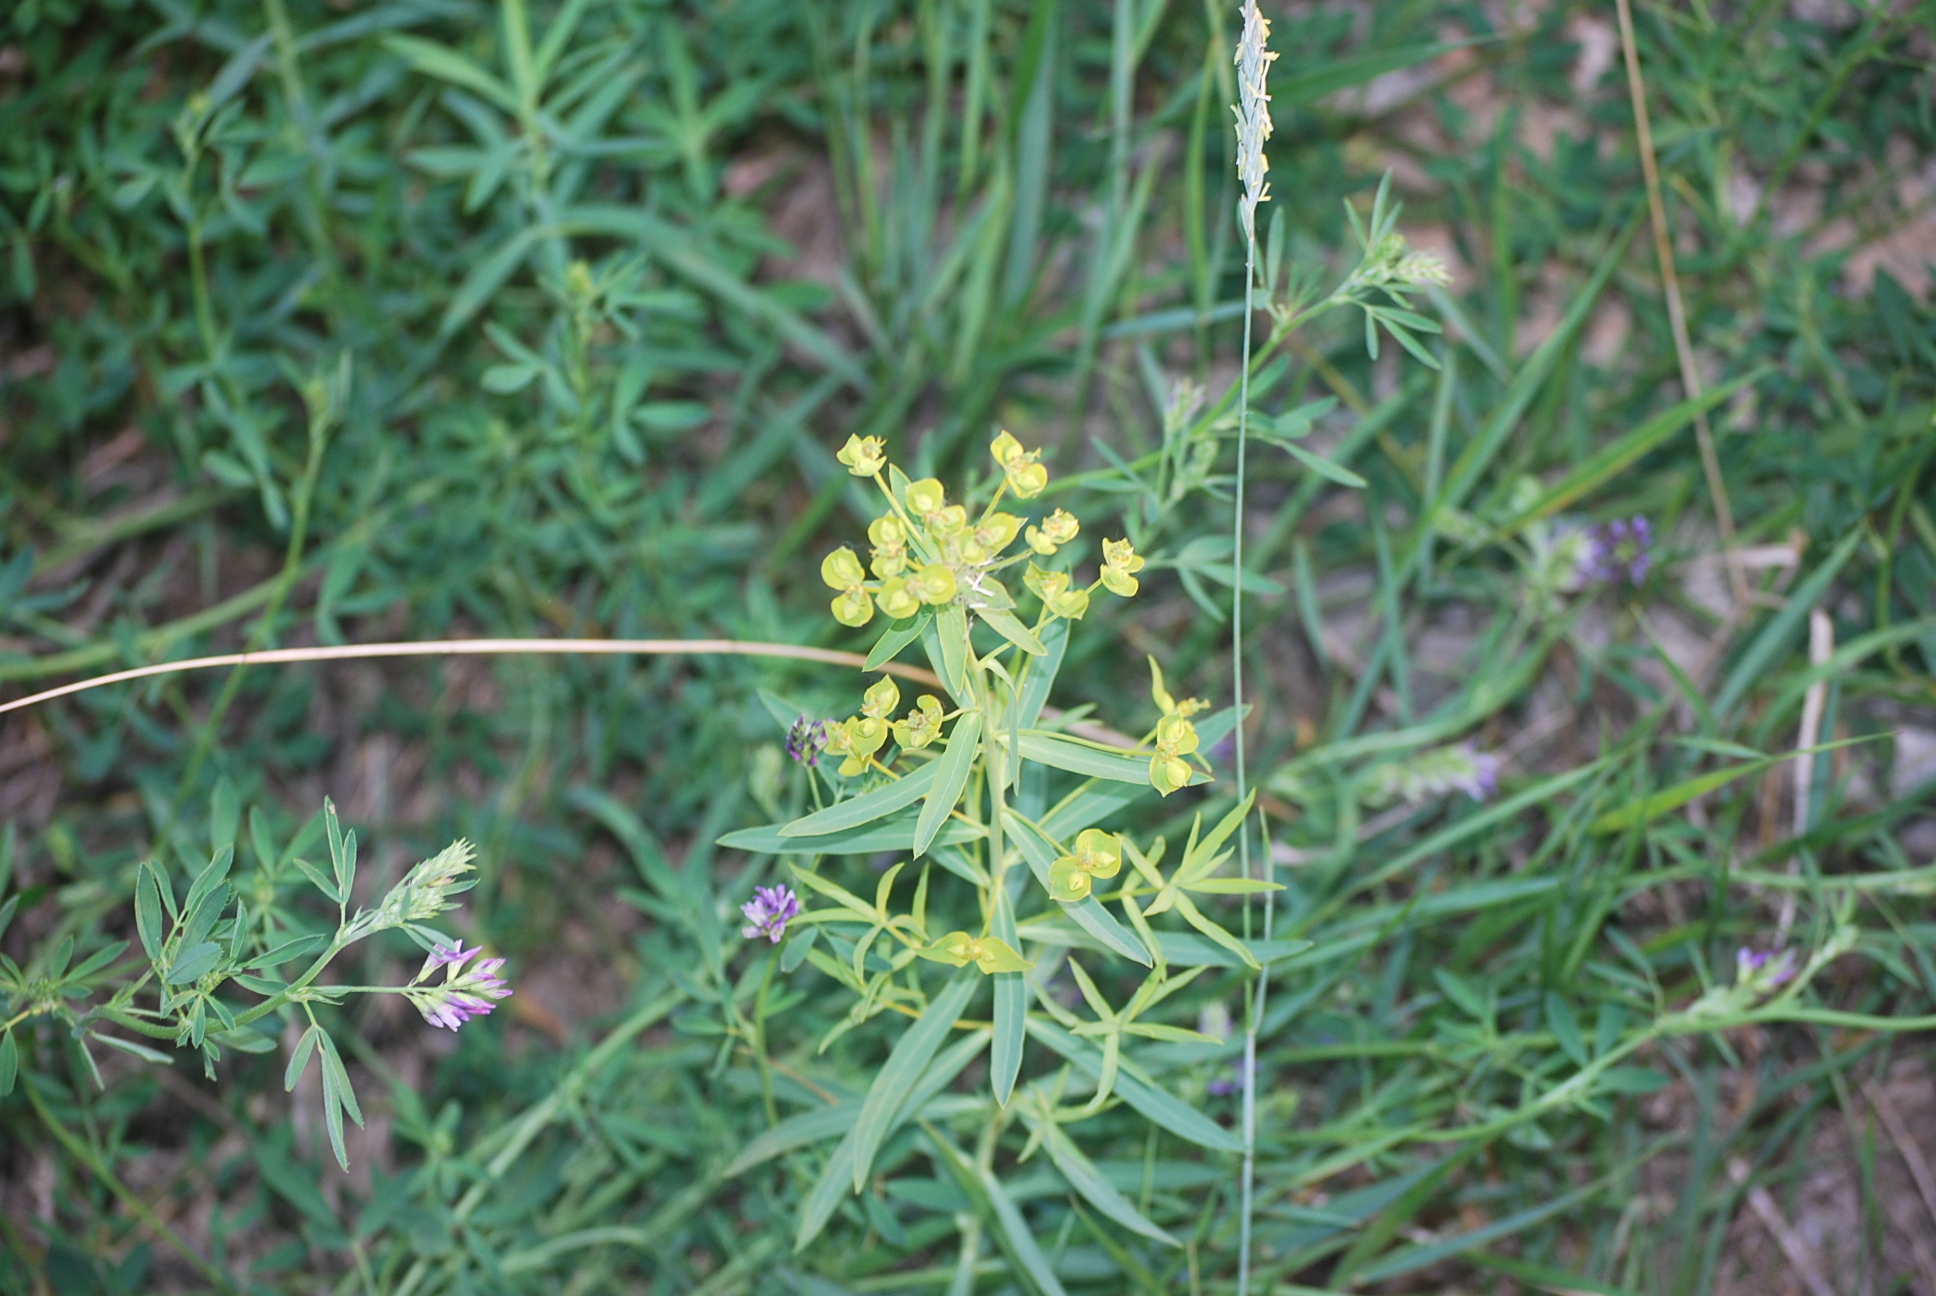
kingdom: Plantae
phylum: Tracheophyta
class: Magnoliopsida
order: Malpighiales
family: Euphorbiaceae
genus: Euphorbia
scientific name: Euphorbia virgata
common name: Leafy spurge
